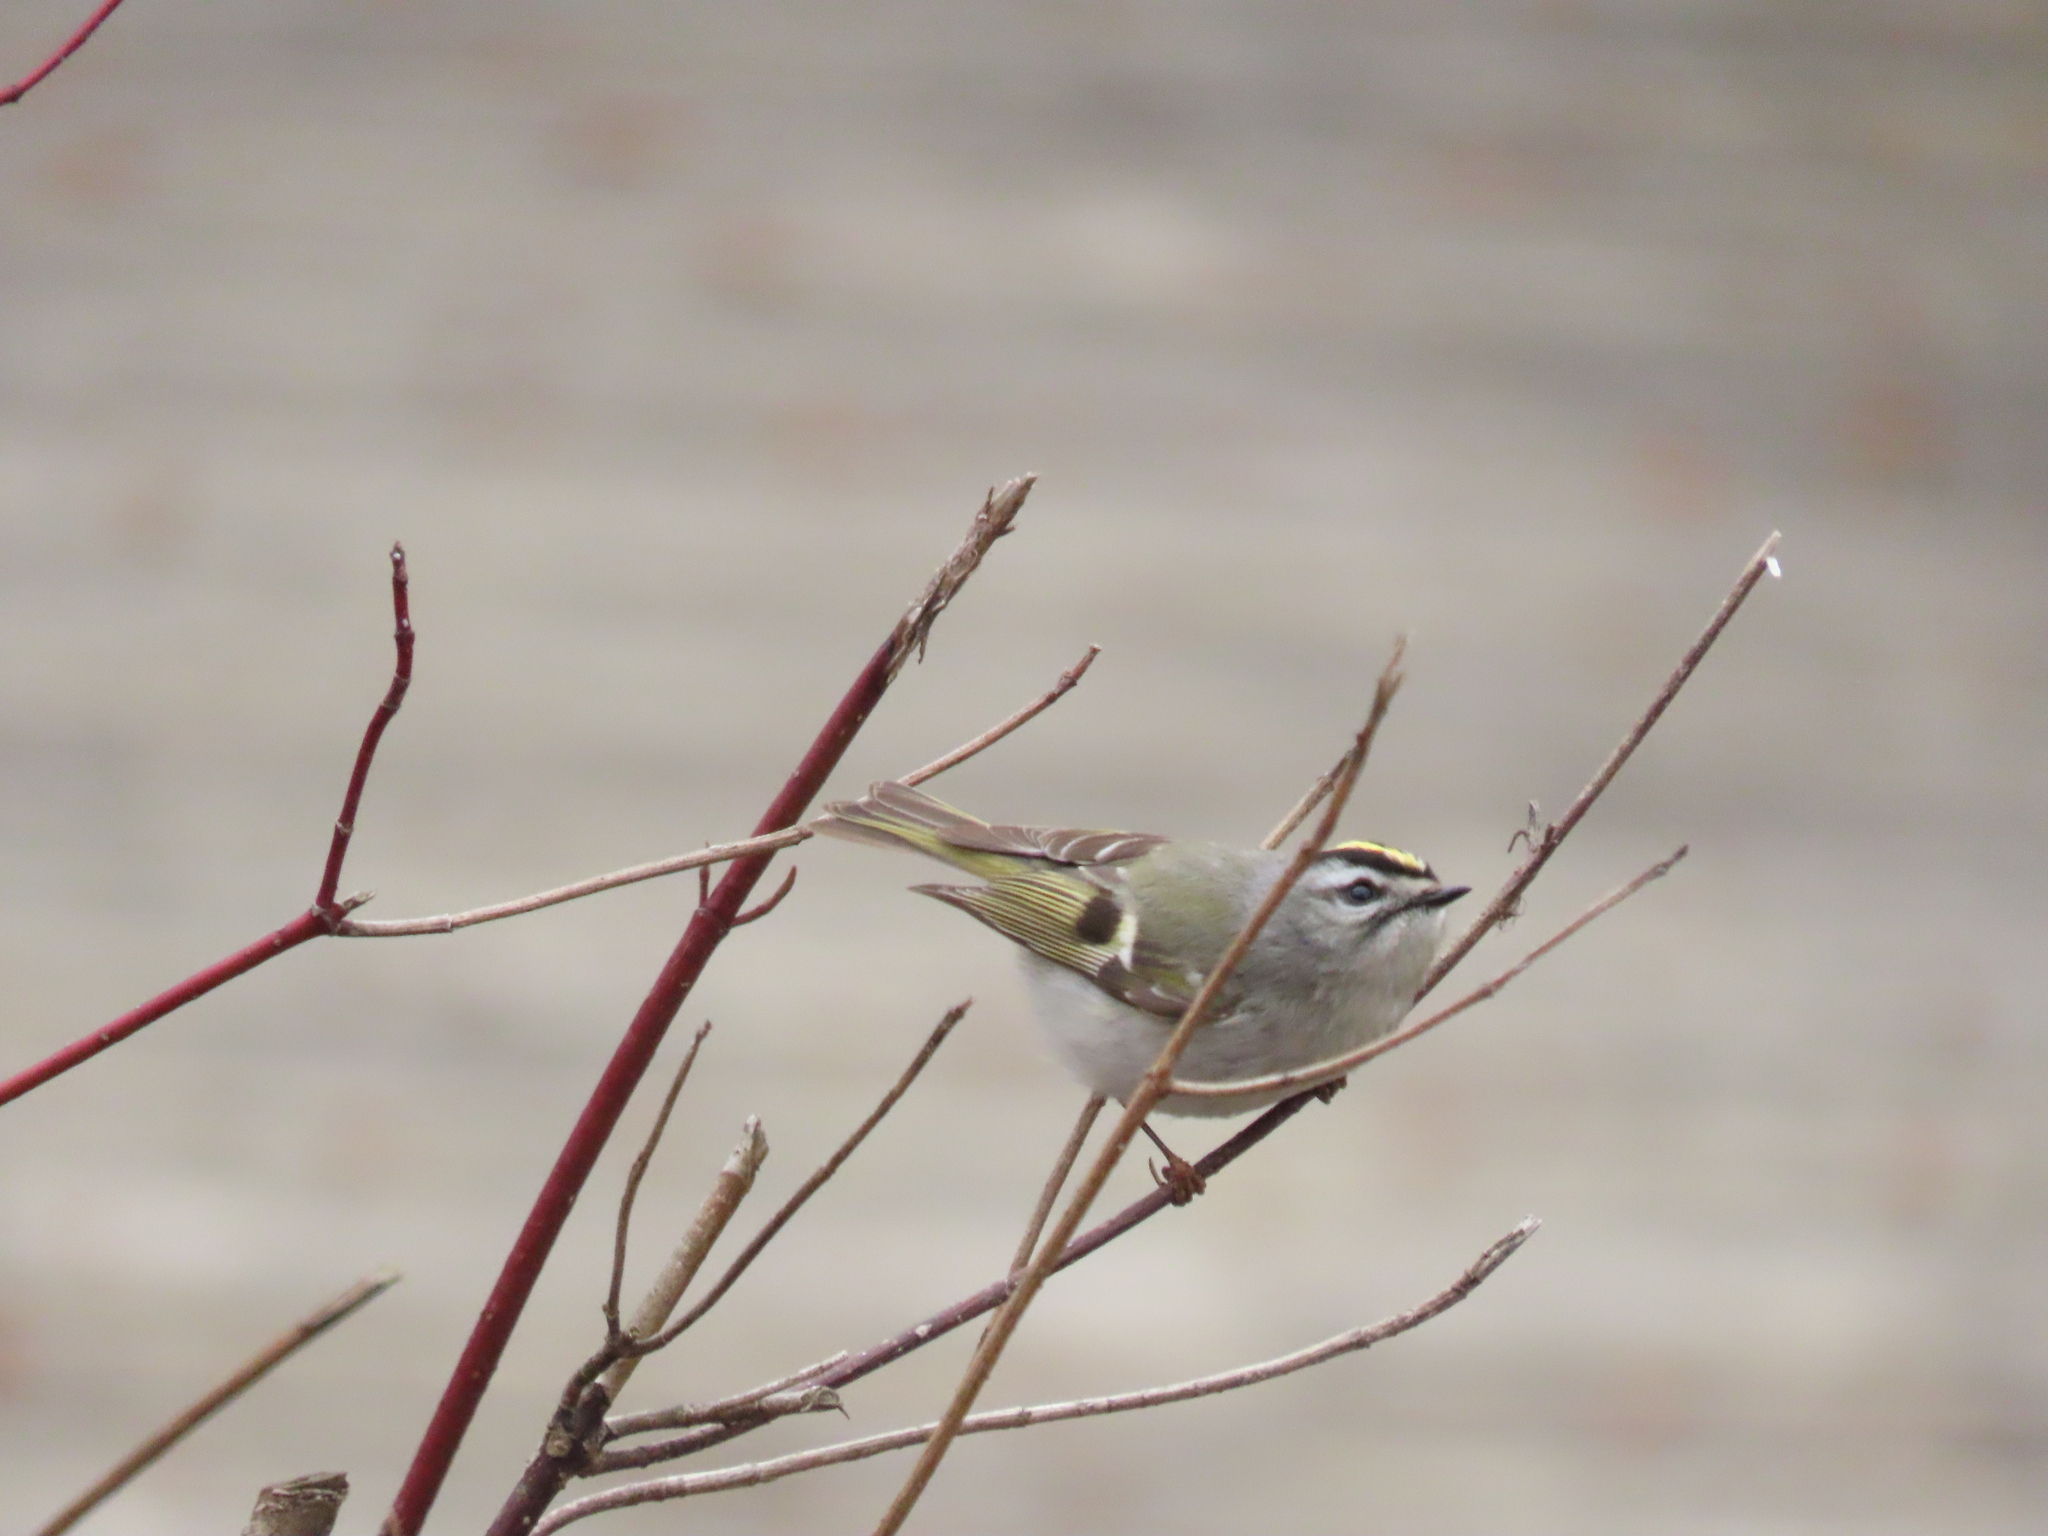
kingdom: Animalia
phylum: Chordata
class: Aves
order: Passeriformes
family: Regulidae
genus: Regulus
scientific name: Regulus satrapa
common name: Golden-crowned kinglet
